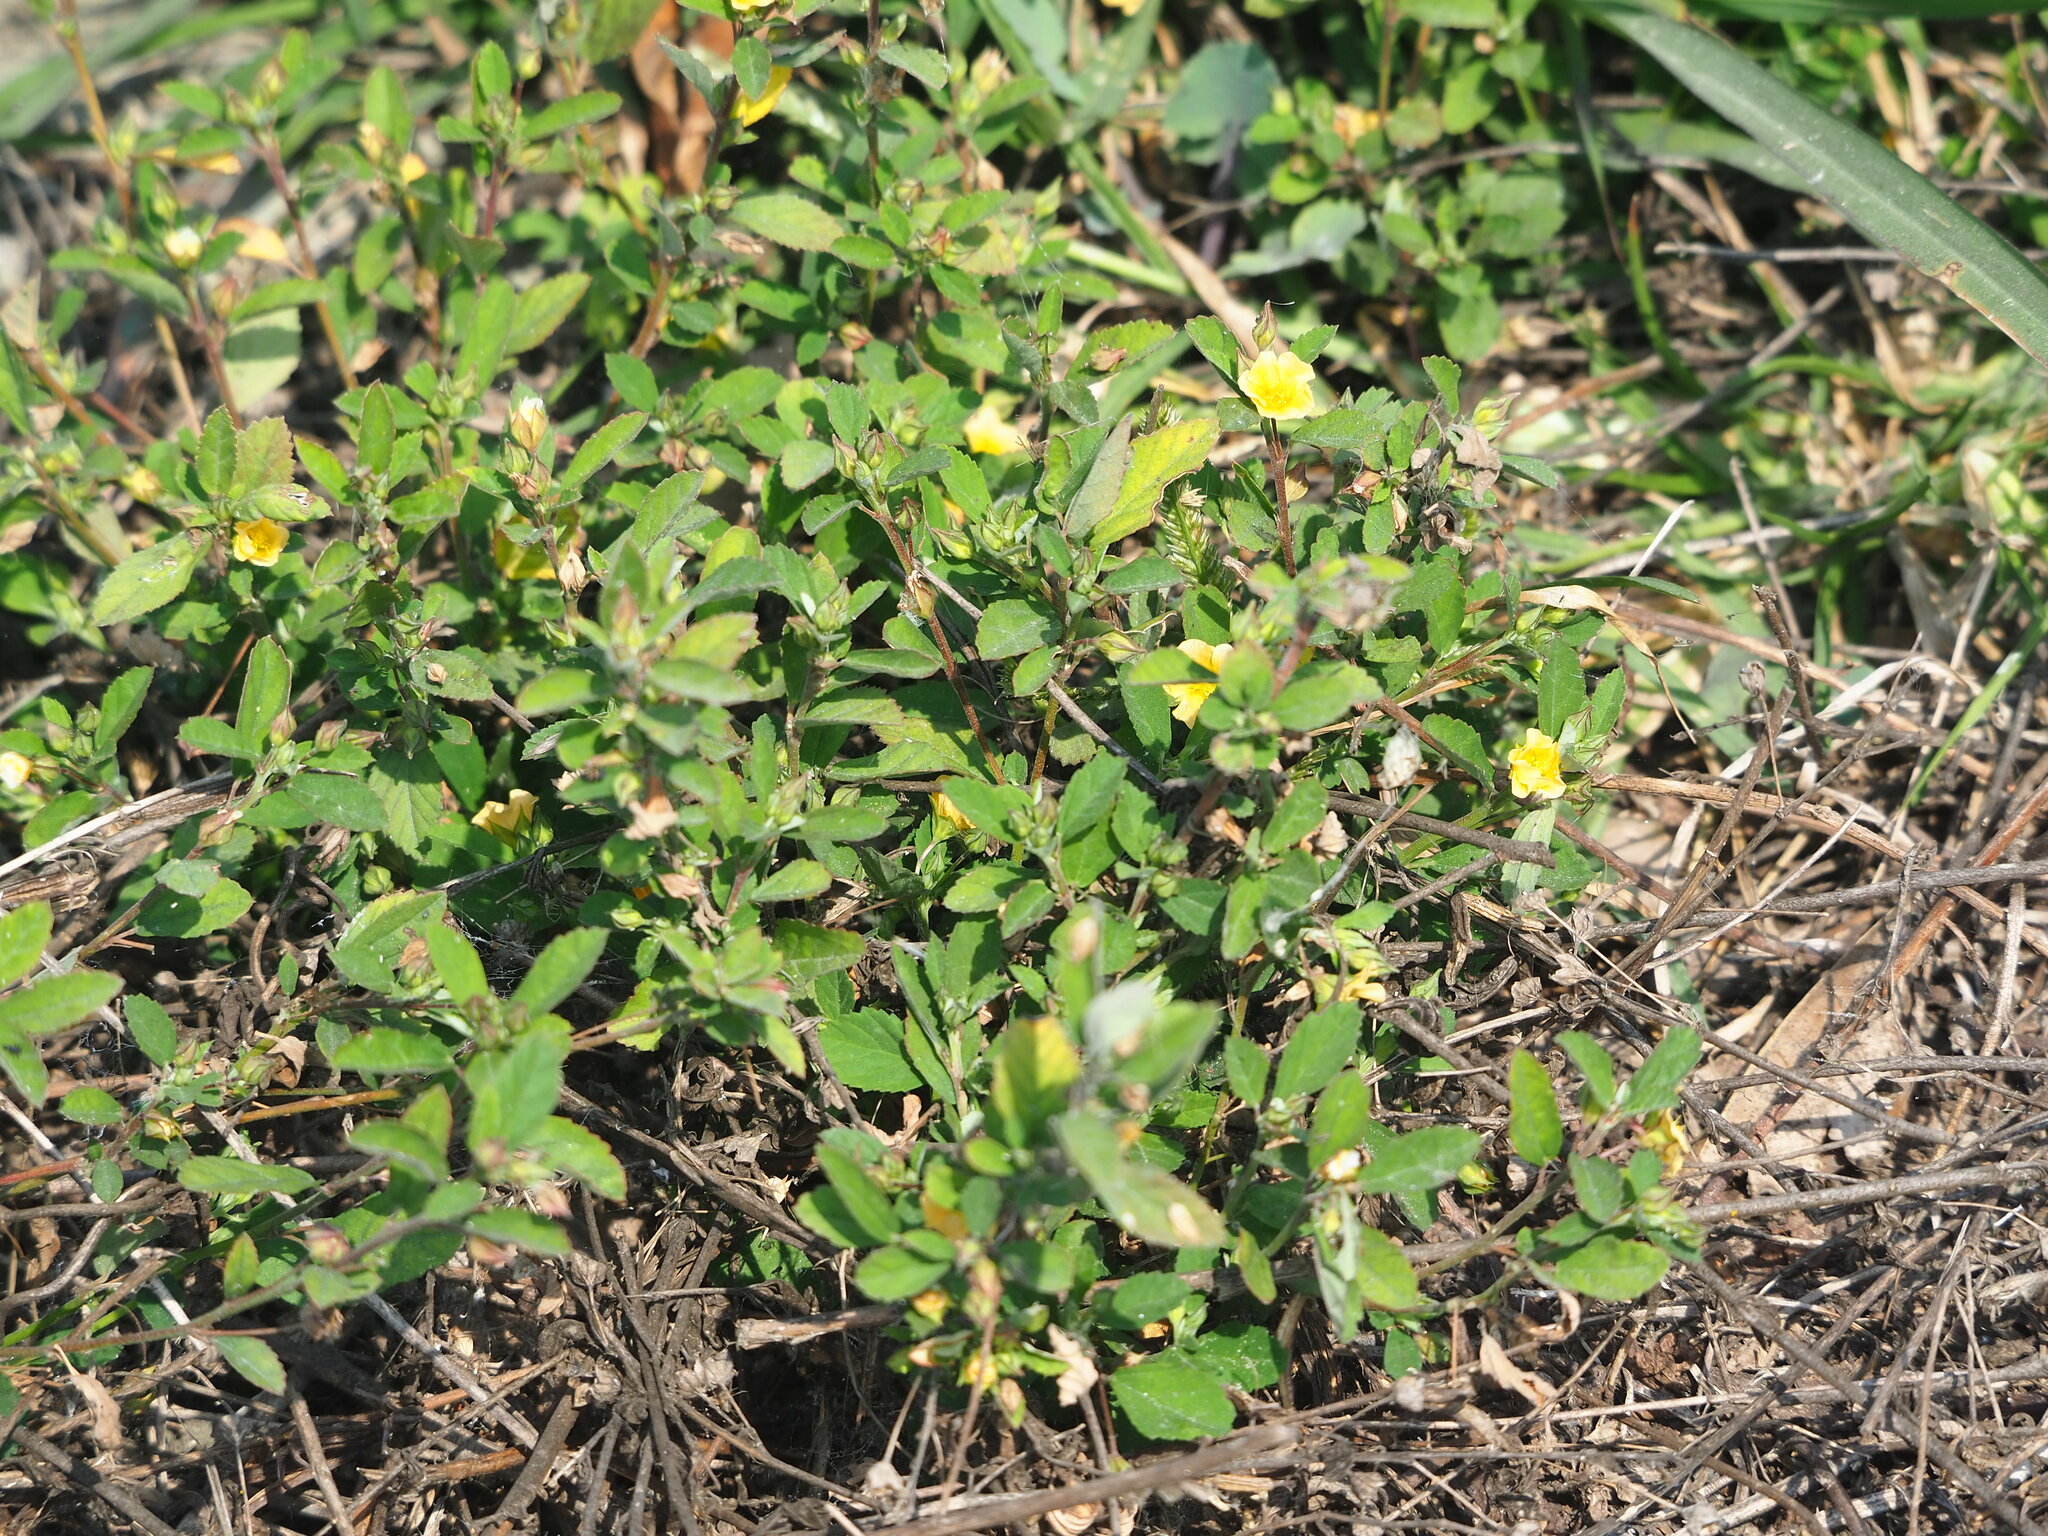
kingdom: Plantae
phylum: Tracheophyta
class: Magnoliopsida
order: Malvales
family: Malvaceae
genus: Sida
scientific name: Sida rhombifolia
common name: Queensland-hemp
